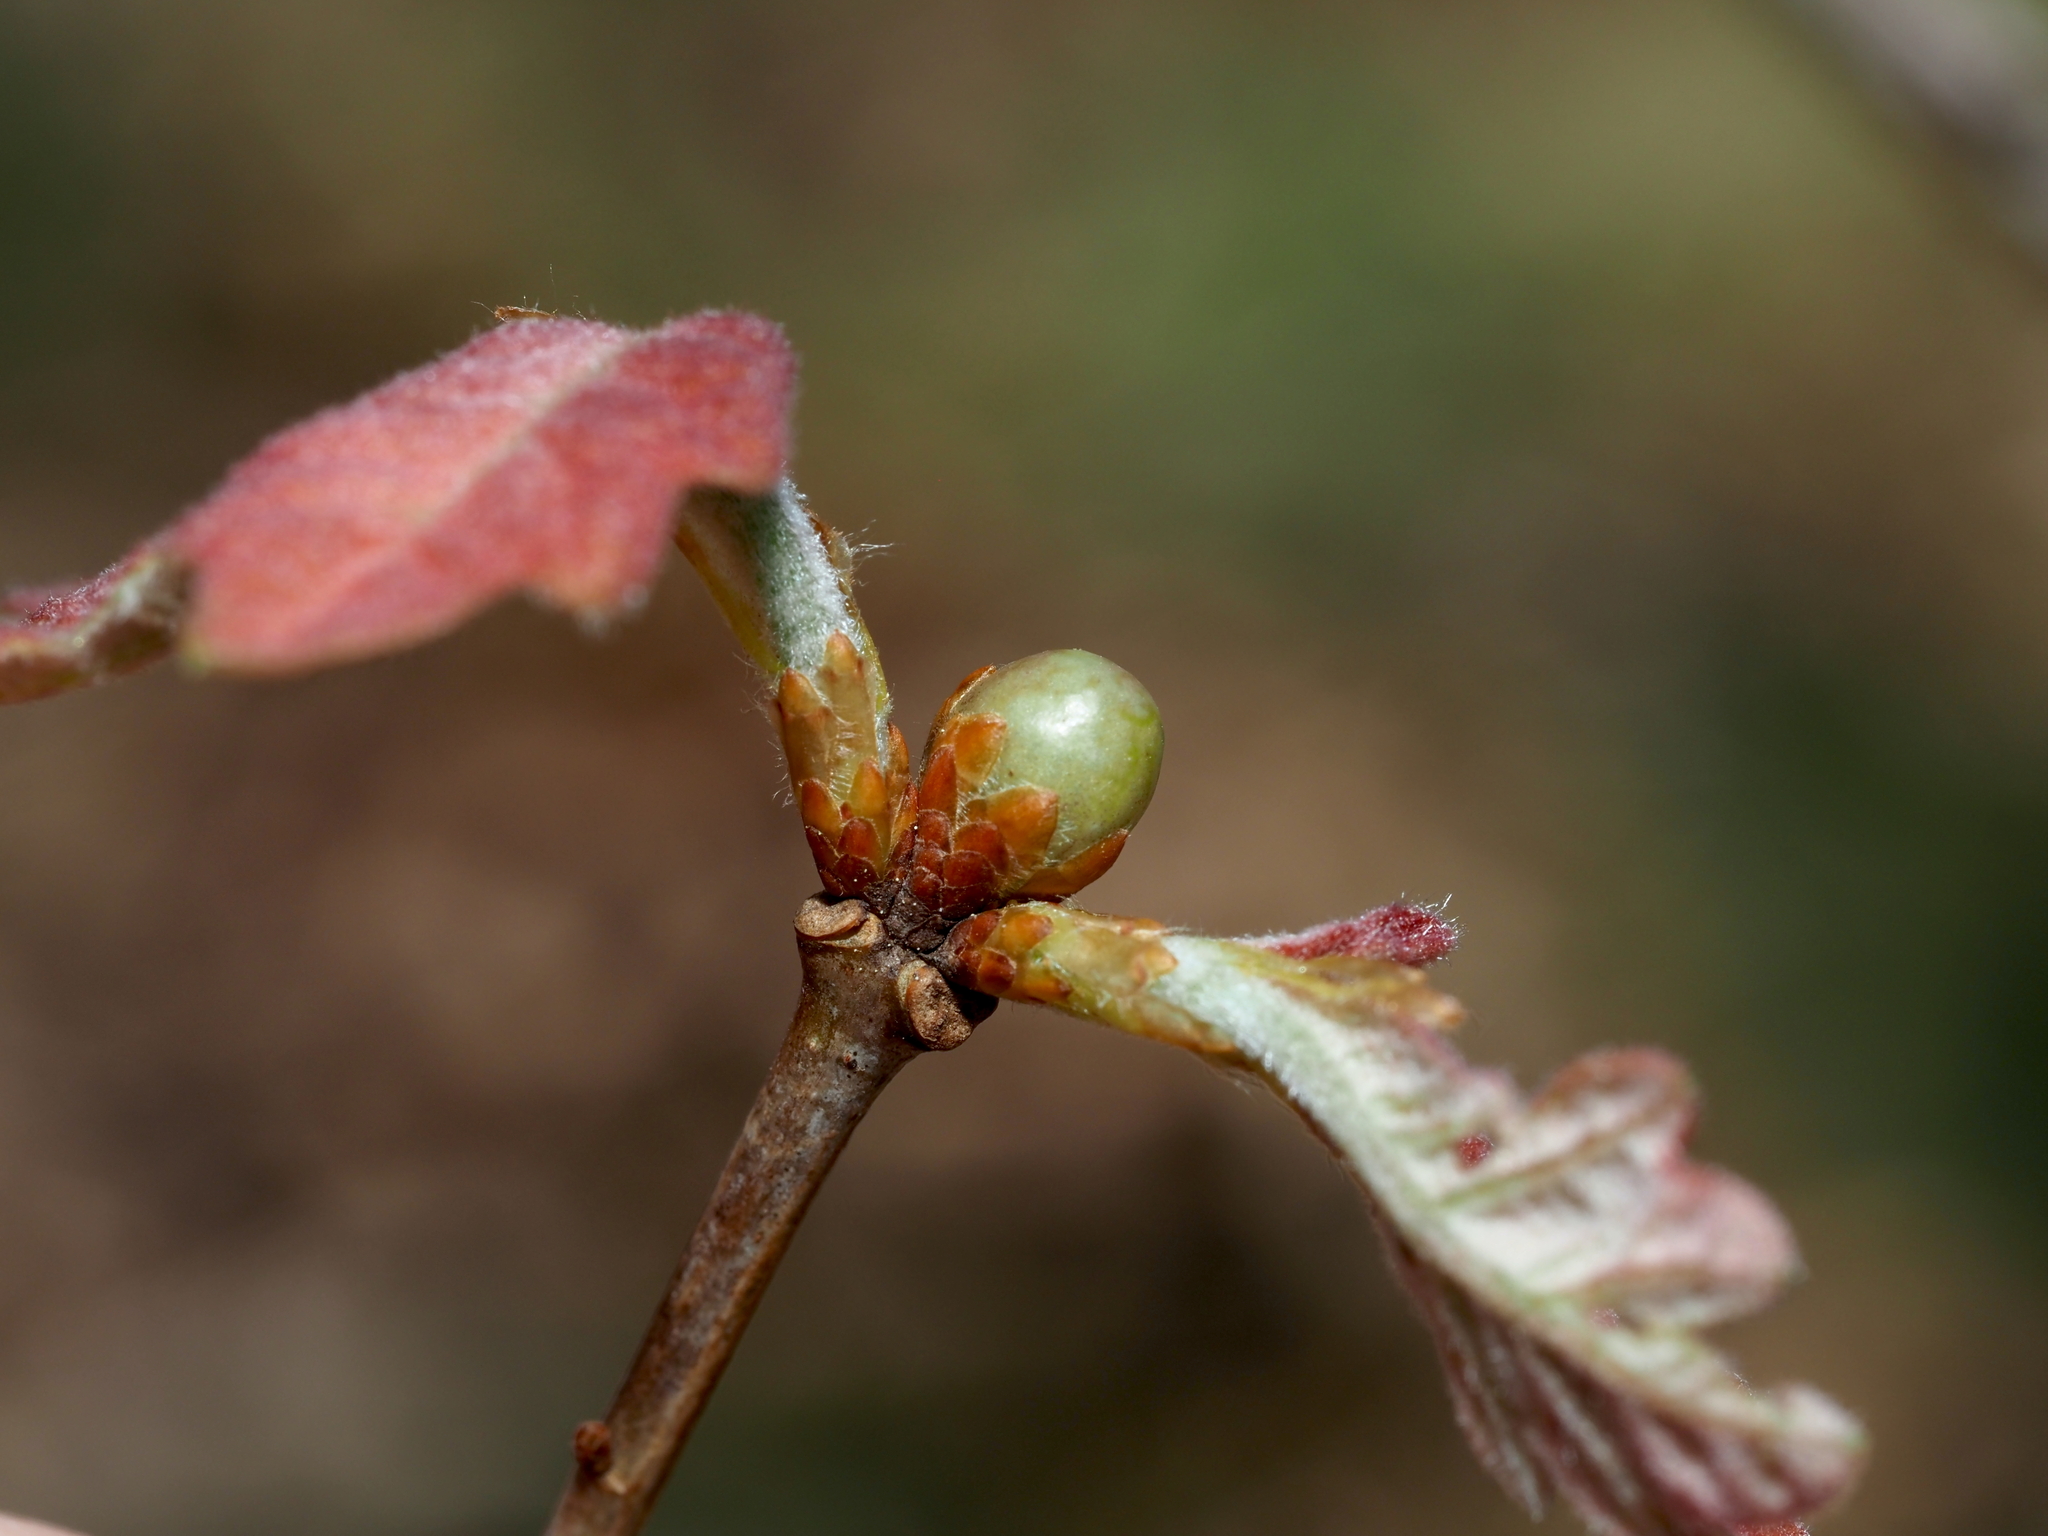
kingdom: Animalia
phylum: Arthropoda
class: Insecta
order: Hymenoptera
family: Cynipidae
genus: Neuroterus
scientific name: Neuroterus
